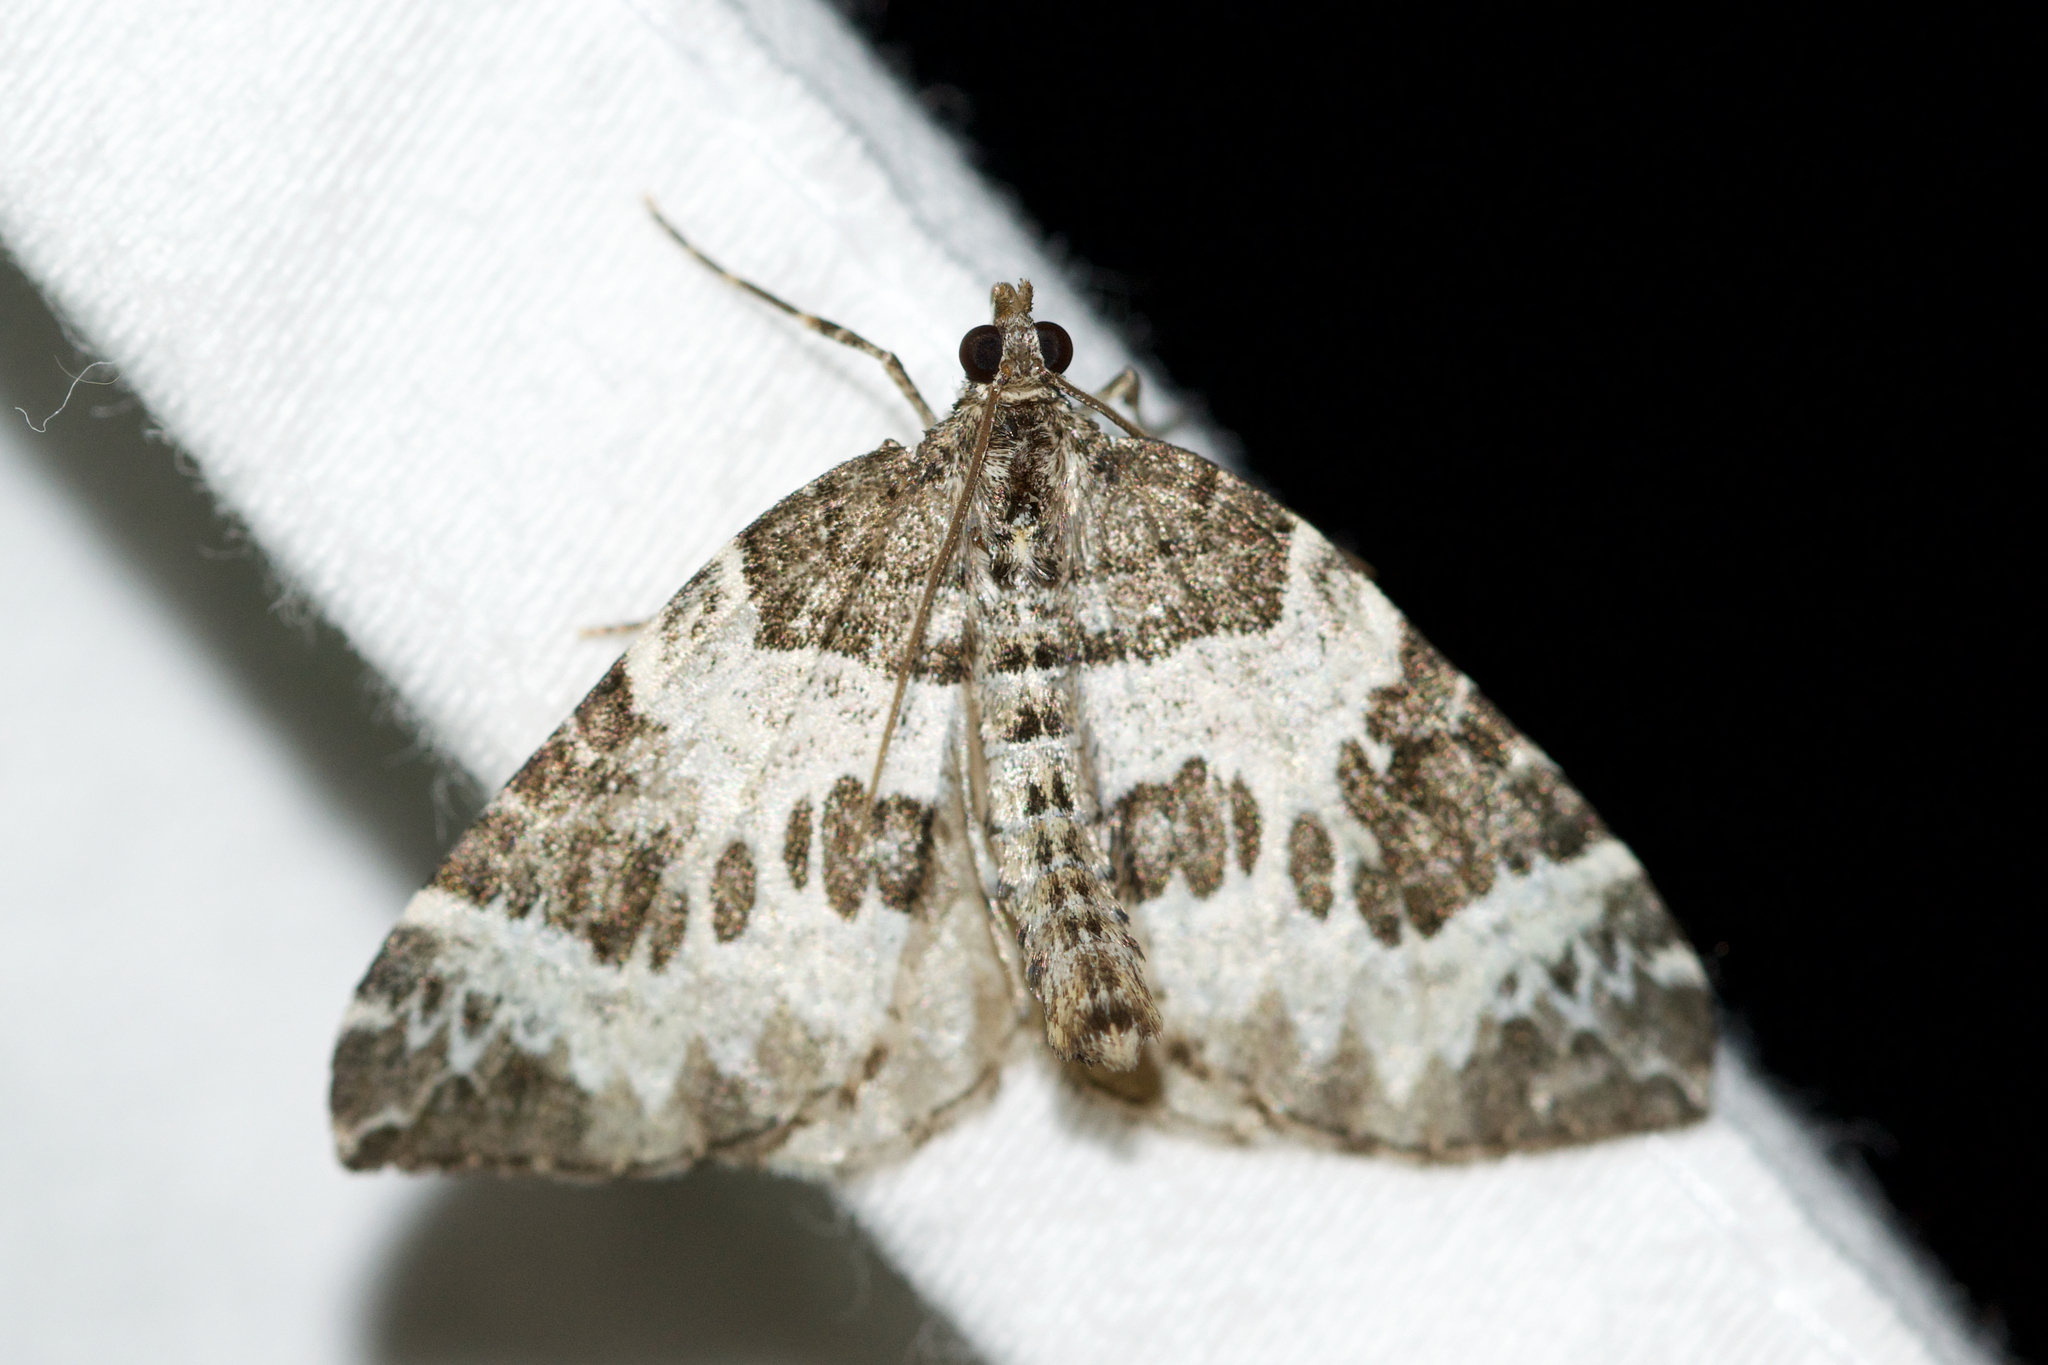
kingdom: Animalia
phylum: Arthropoda
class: Insecta
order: Lepidoptera
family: Geometridae
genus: Eulithis
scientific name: Eulithis explanata
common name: White eulithis
